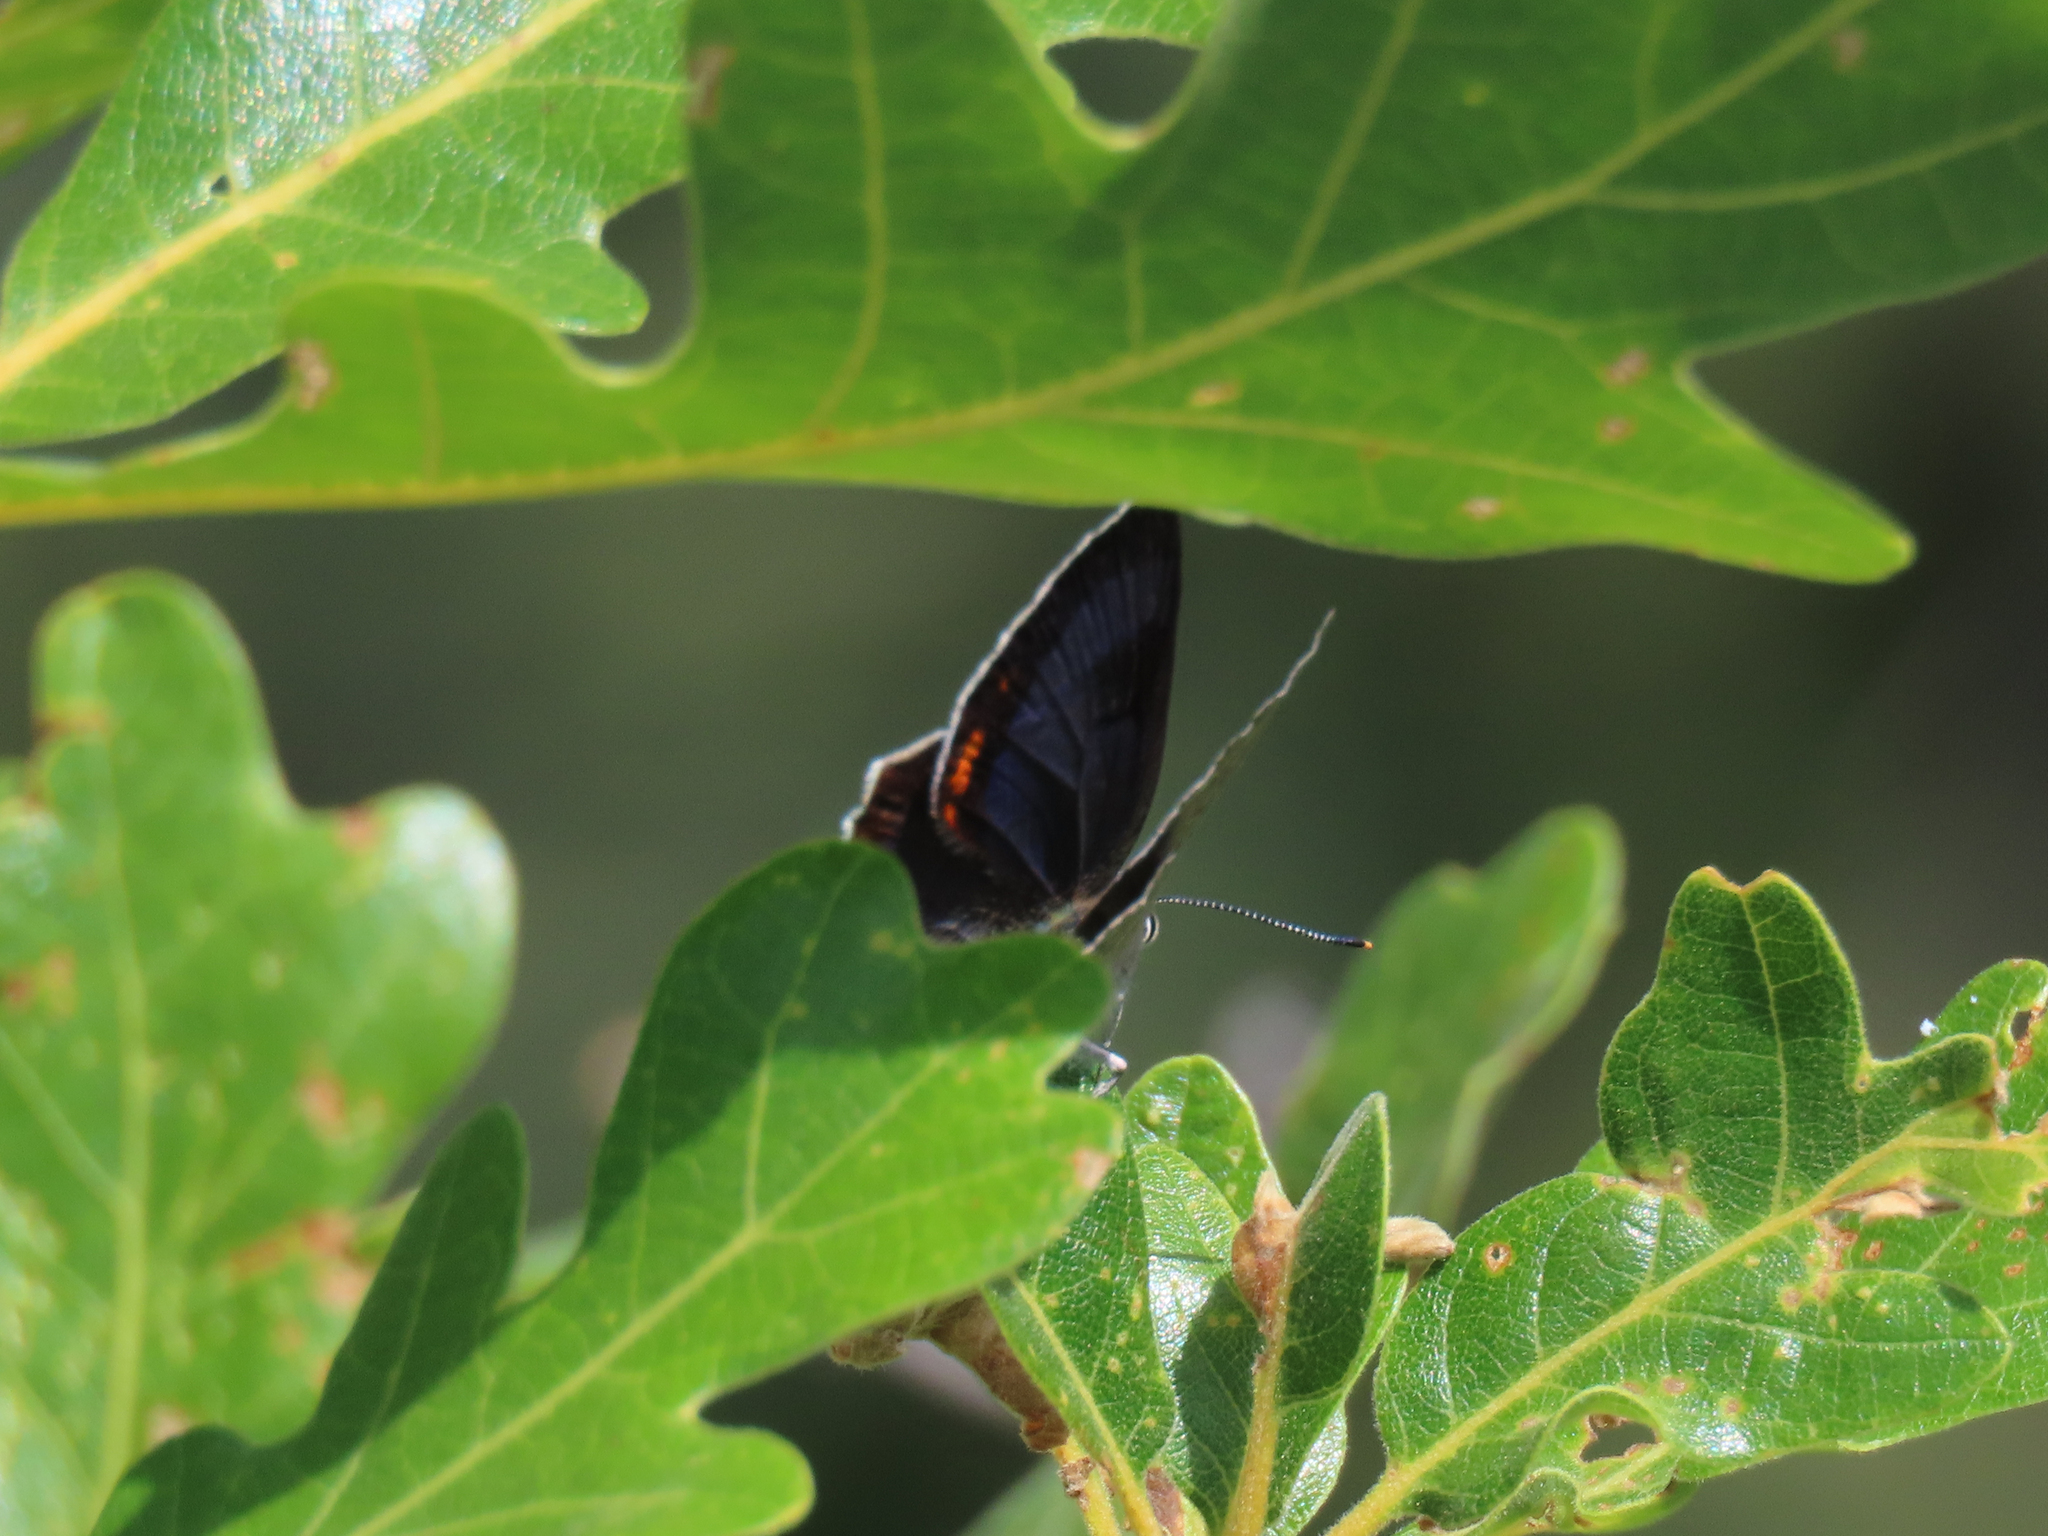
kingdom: Animalia
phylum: Arthropoda
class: Insecta
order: Lepidoptera
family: Lycaenidae
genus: Hypaurotis
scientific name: Hypaurotis crysalus
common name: Colorado hairstreak
